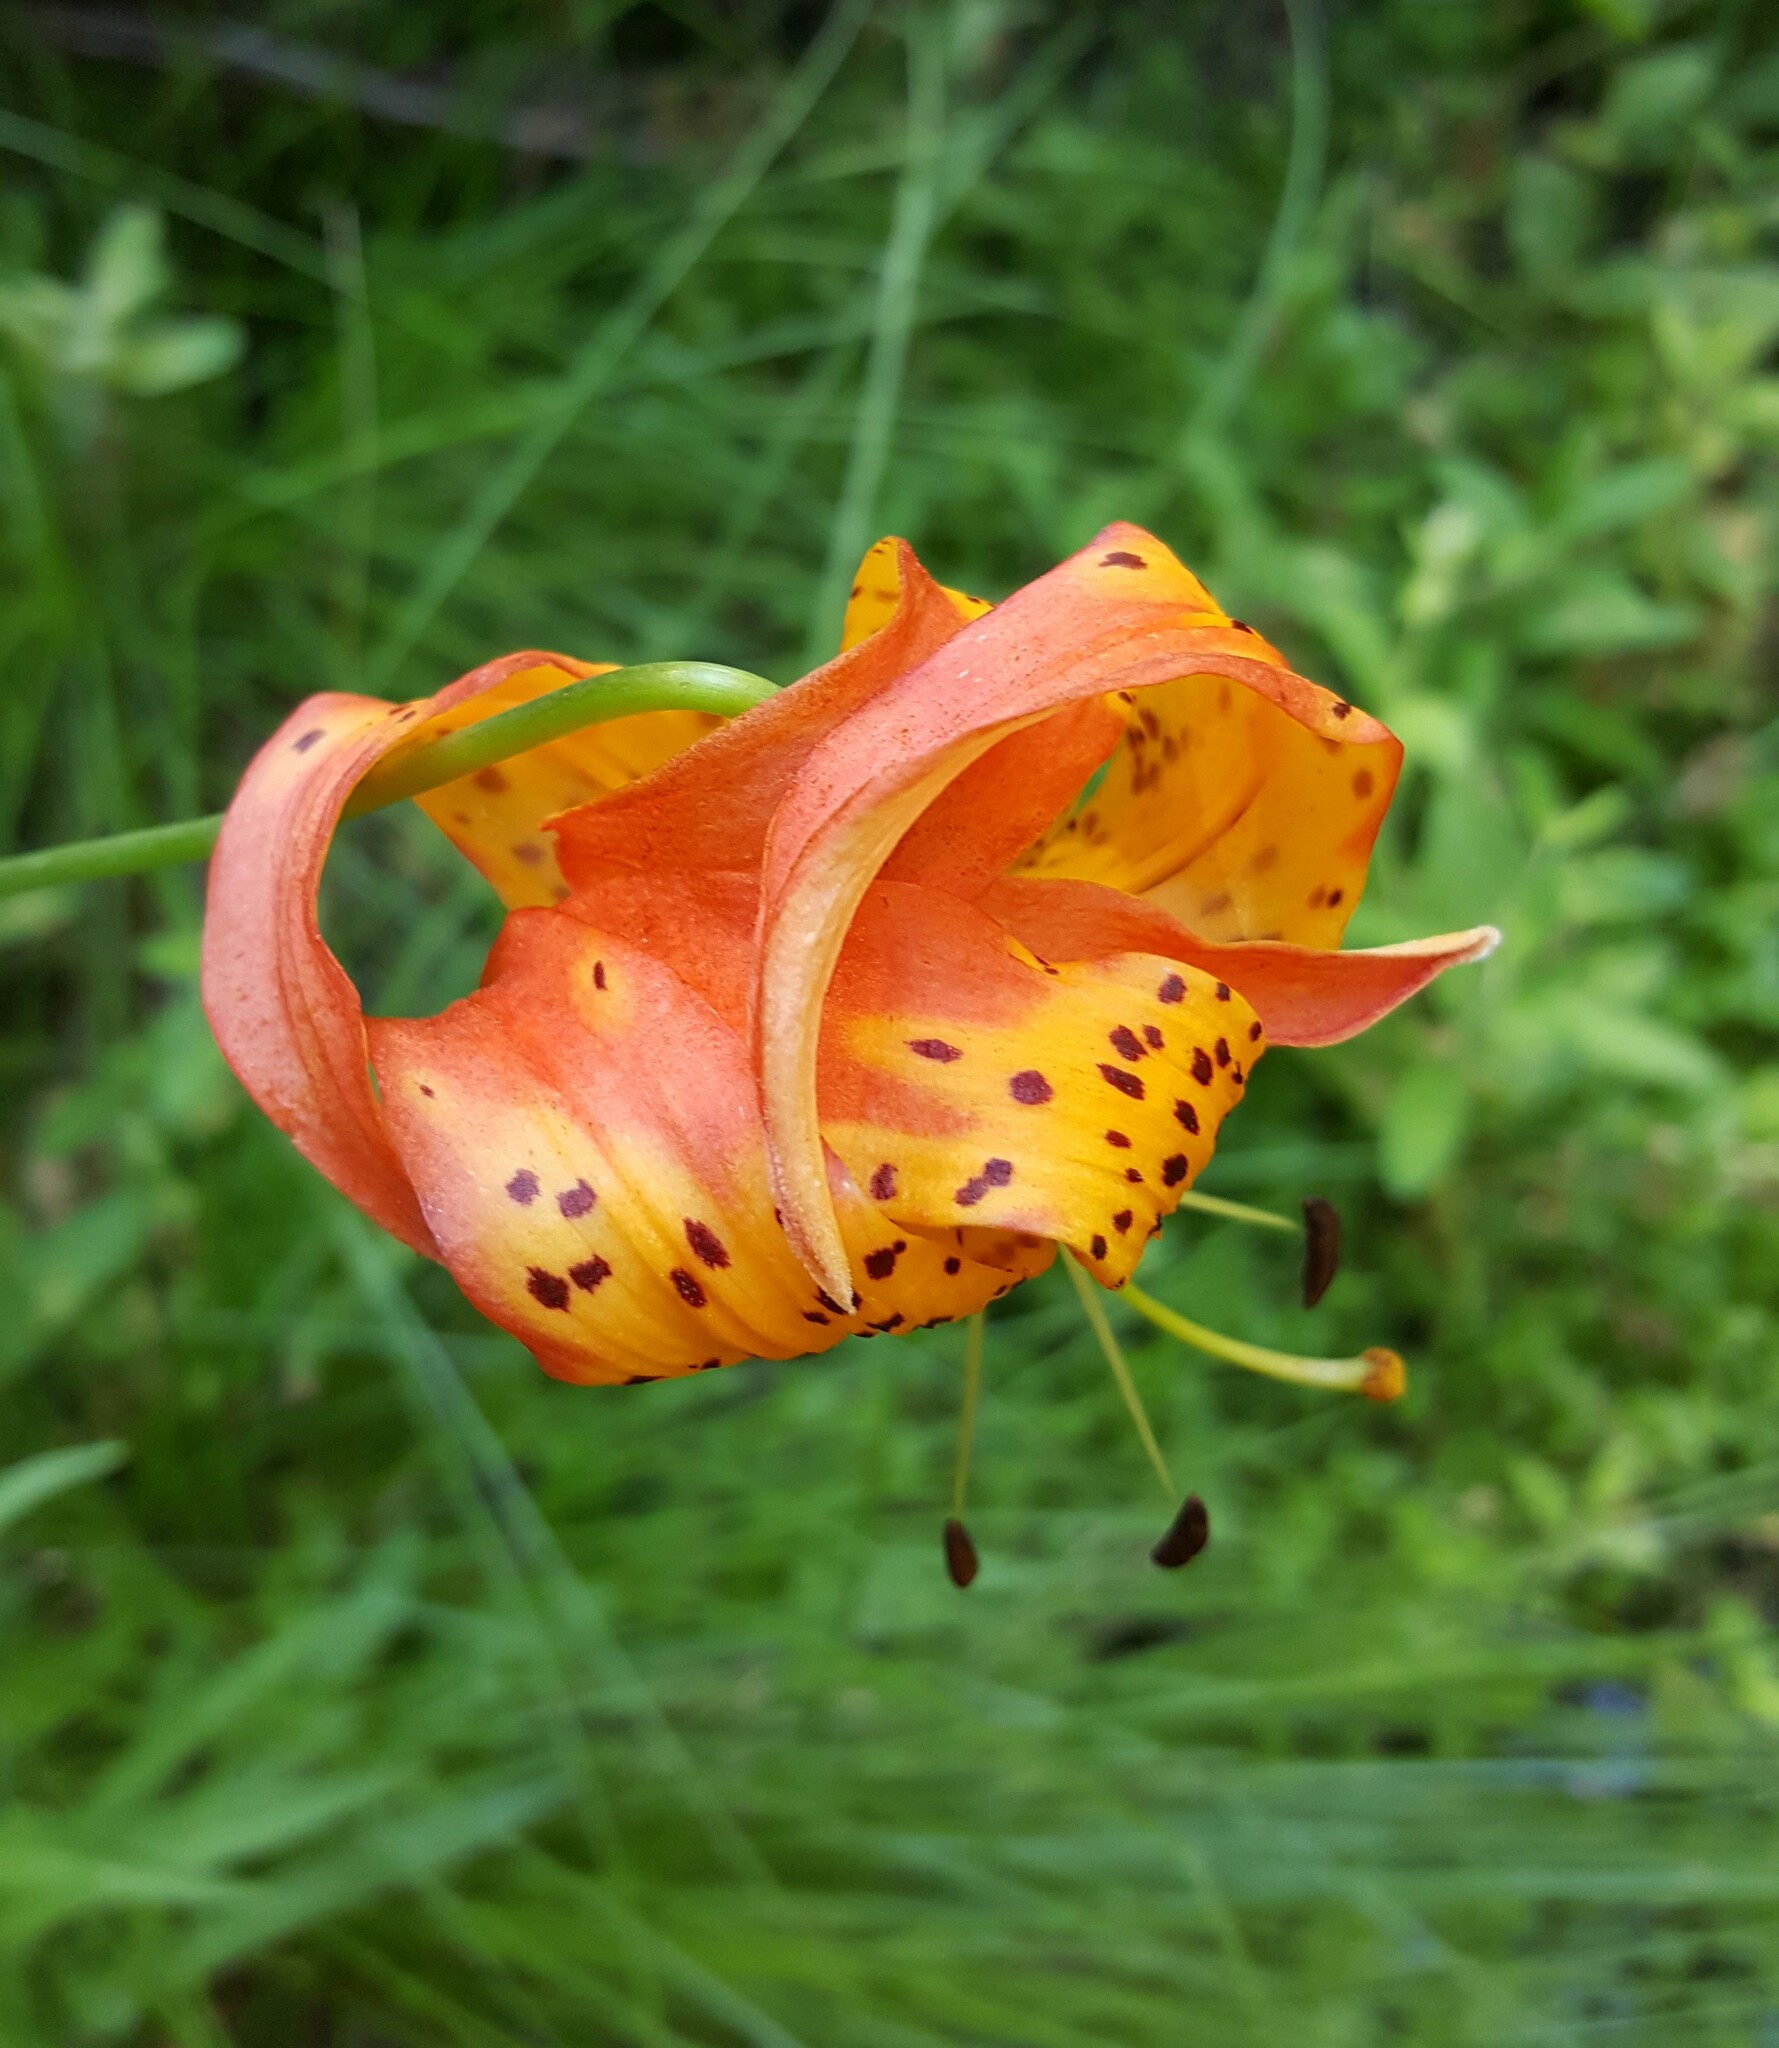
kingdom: Plantae
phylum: Tracheophyta
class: Liliopsida
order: Liliales
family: Liliaceae
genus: Lilium
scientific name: Lilium pardalinum
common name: Panther lily
